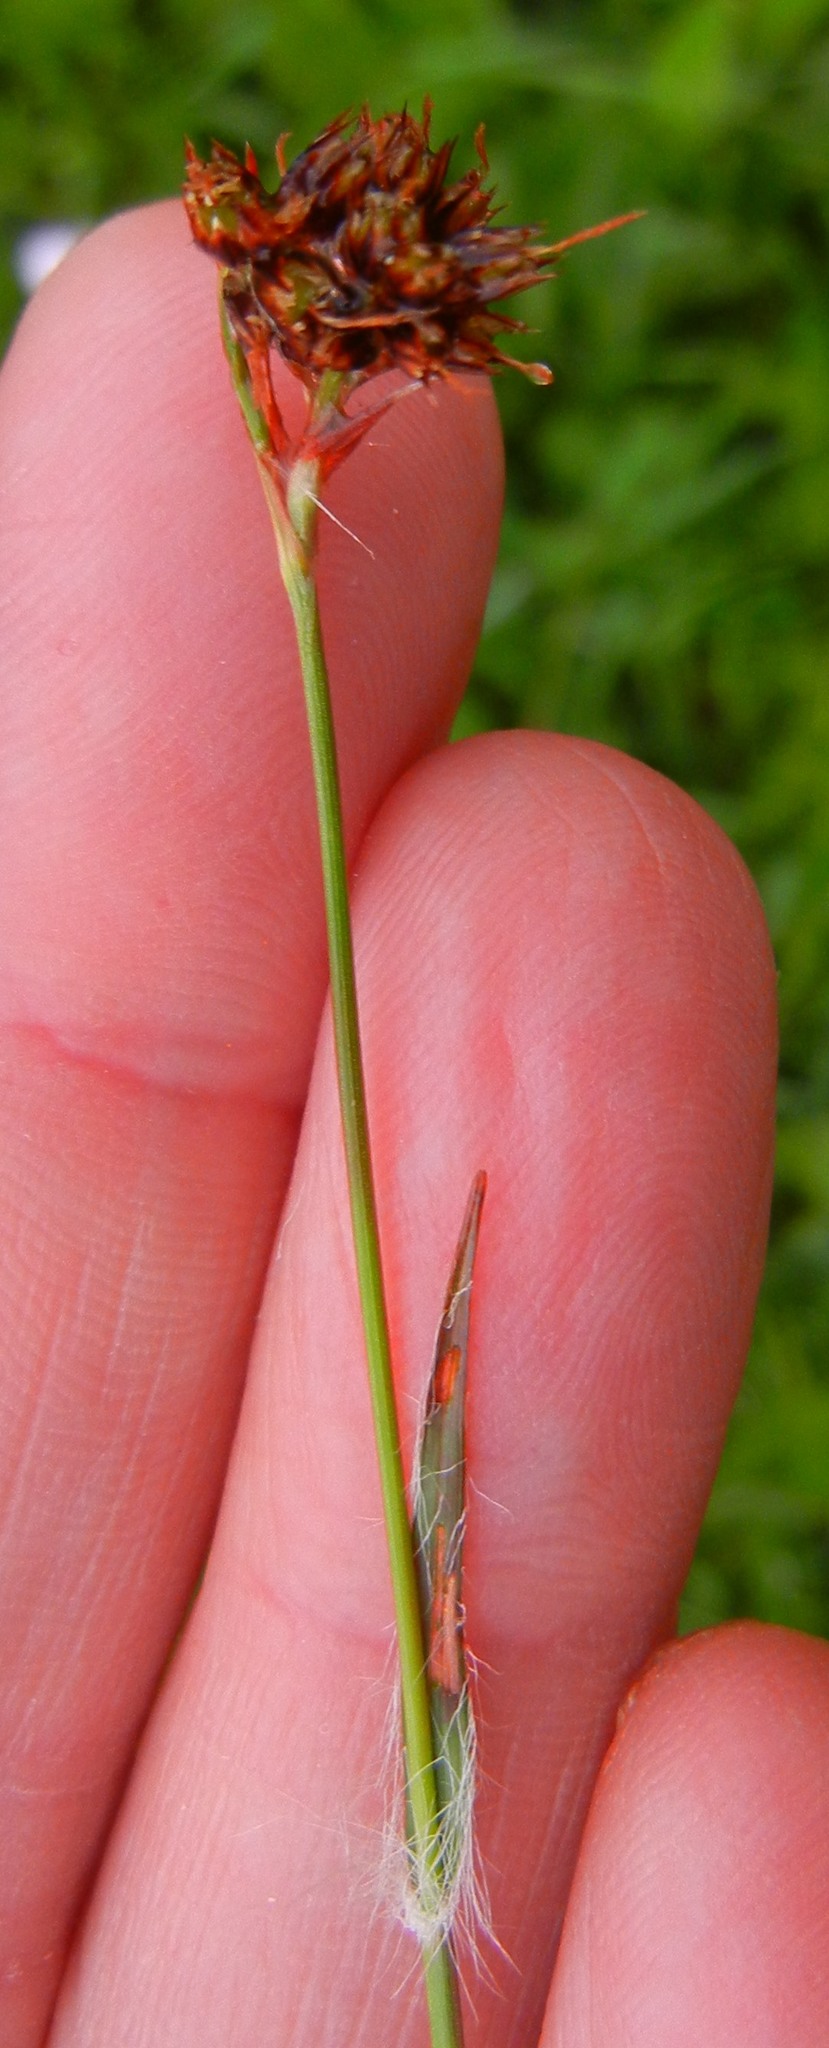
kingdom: Plantae
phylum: Tracheophyta
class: Liliopsida
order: Poales
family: Juncaceae
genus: Luzula
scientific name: Luzula campestris
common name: Field wood-rush
